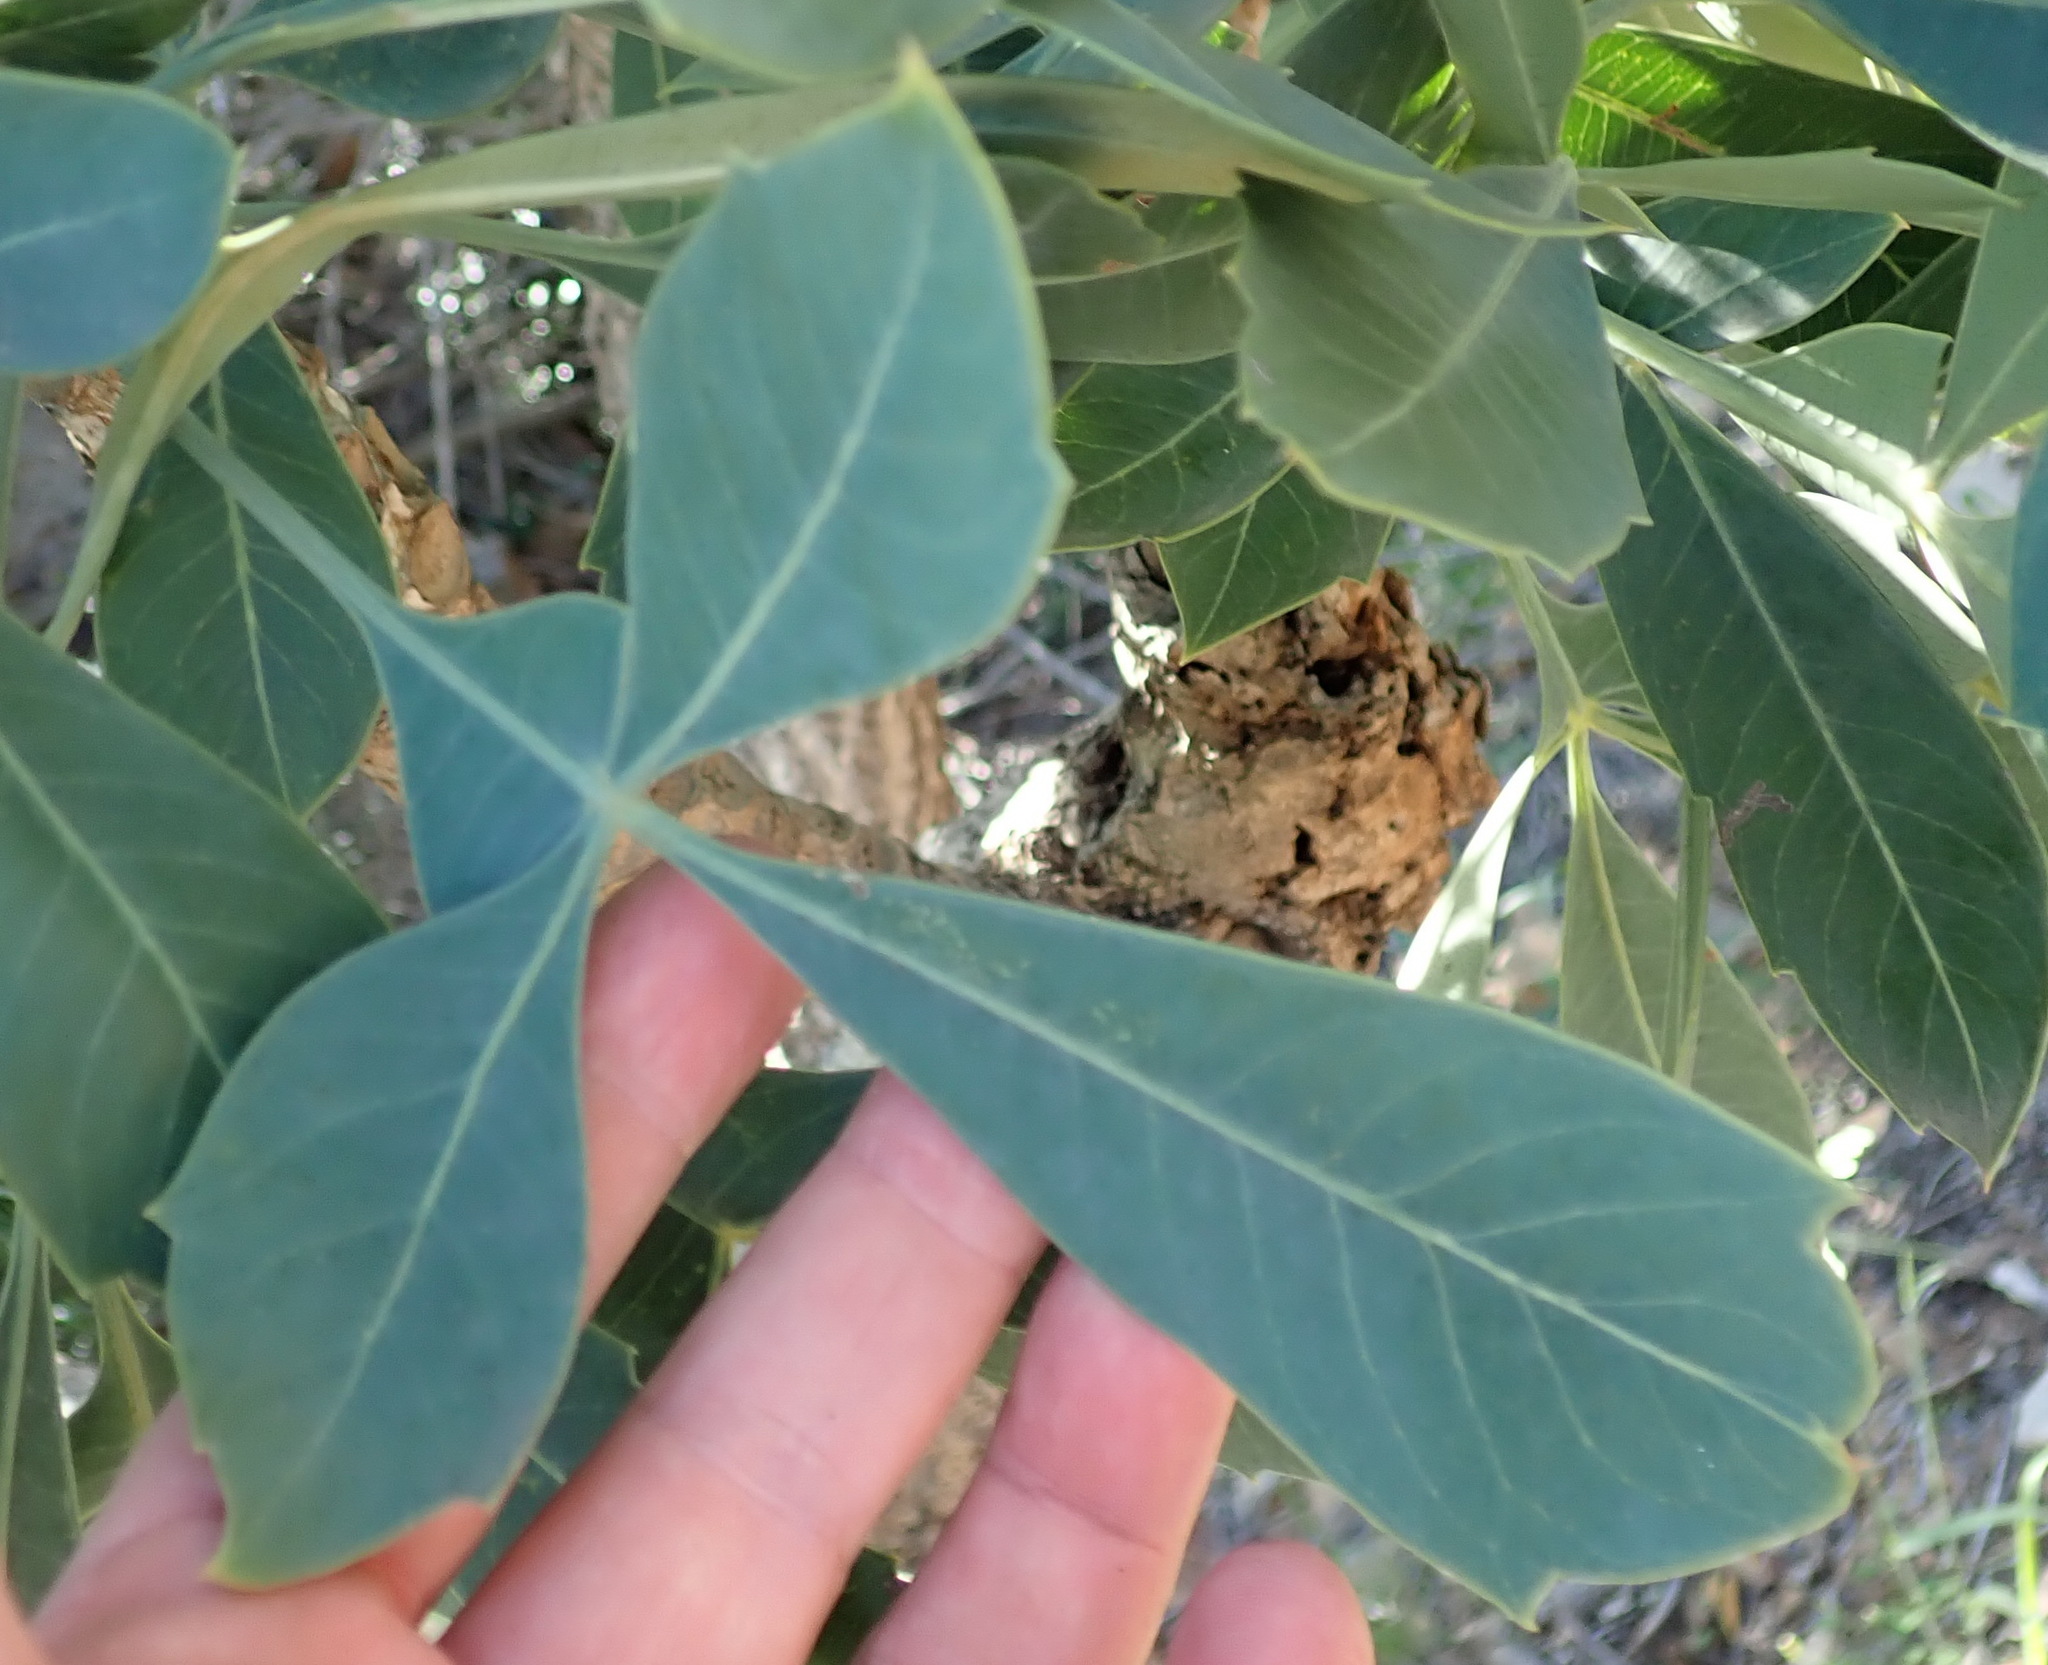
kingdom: Plantae
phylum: Tracheophyta
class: Magnoliopsida
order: Apiales
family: Araliaceae
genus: Cussonia
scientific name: Cussonia spicata
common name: Common cabbagetree
